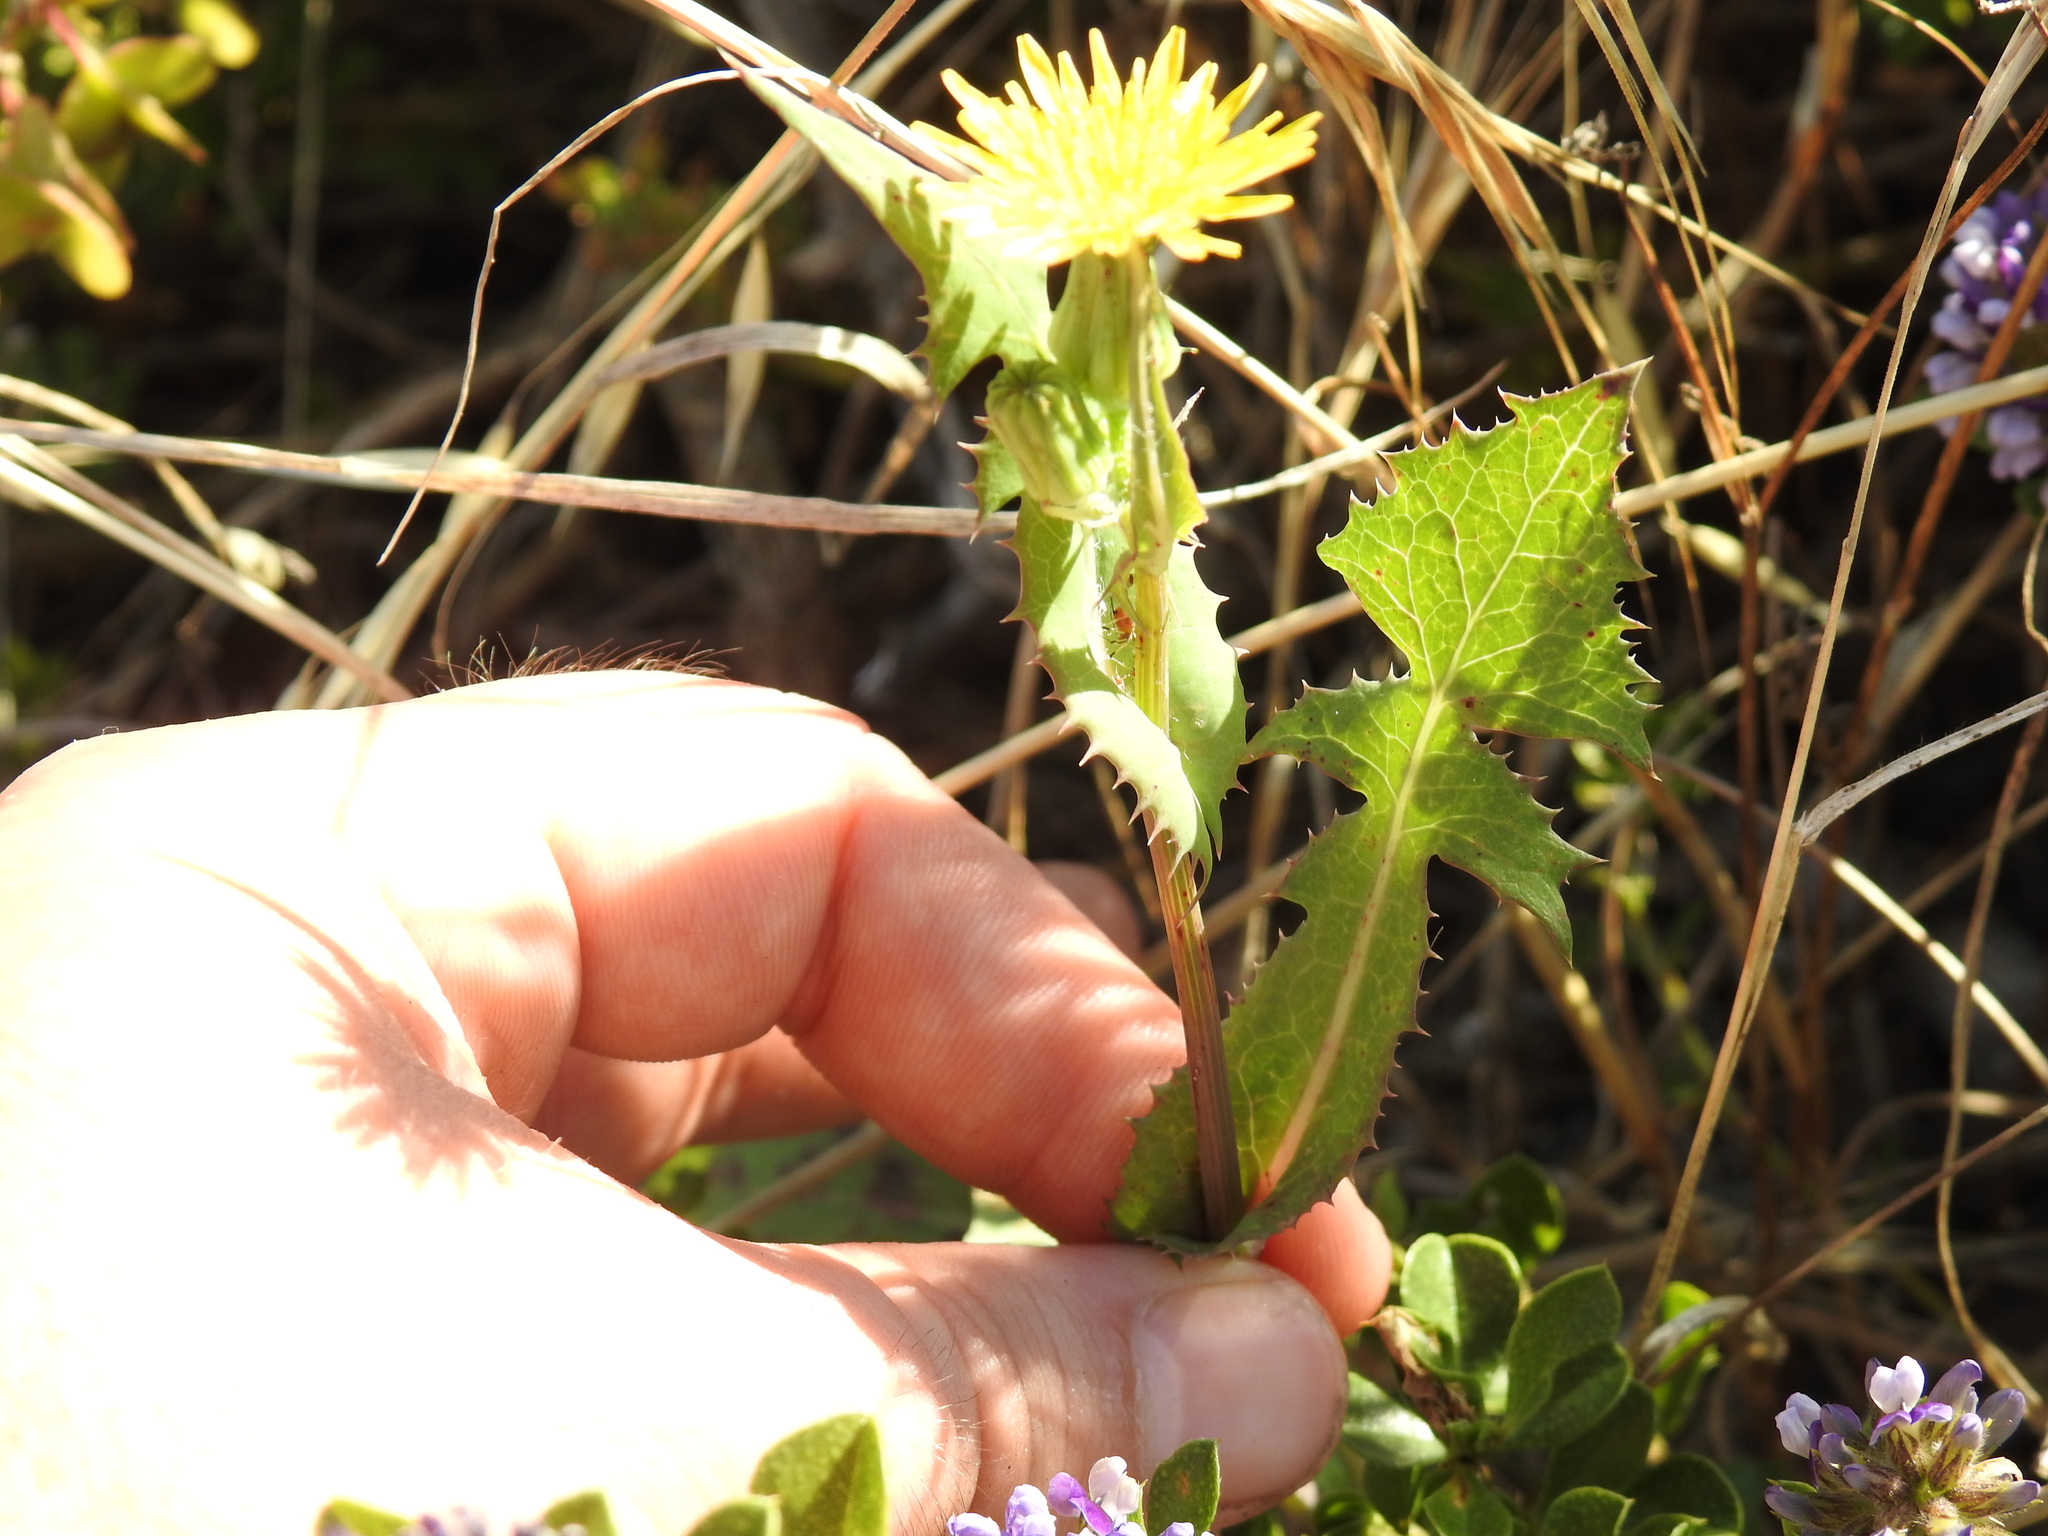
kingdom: Plantae
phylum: Tracheophyta
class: Magnoliopsida
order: Asterales
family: Asteraceae
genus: Sonchus
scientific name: Sonchus oleraceus
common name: Common sowthistle
